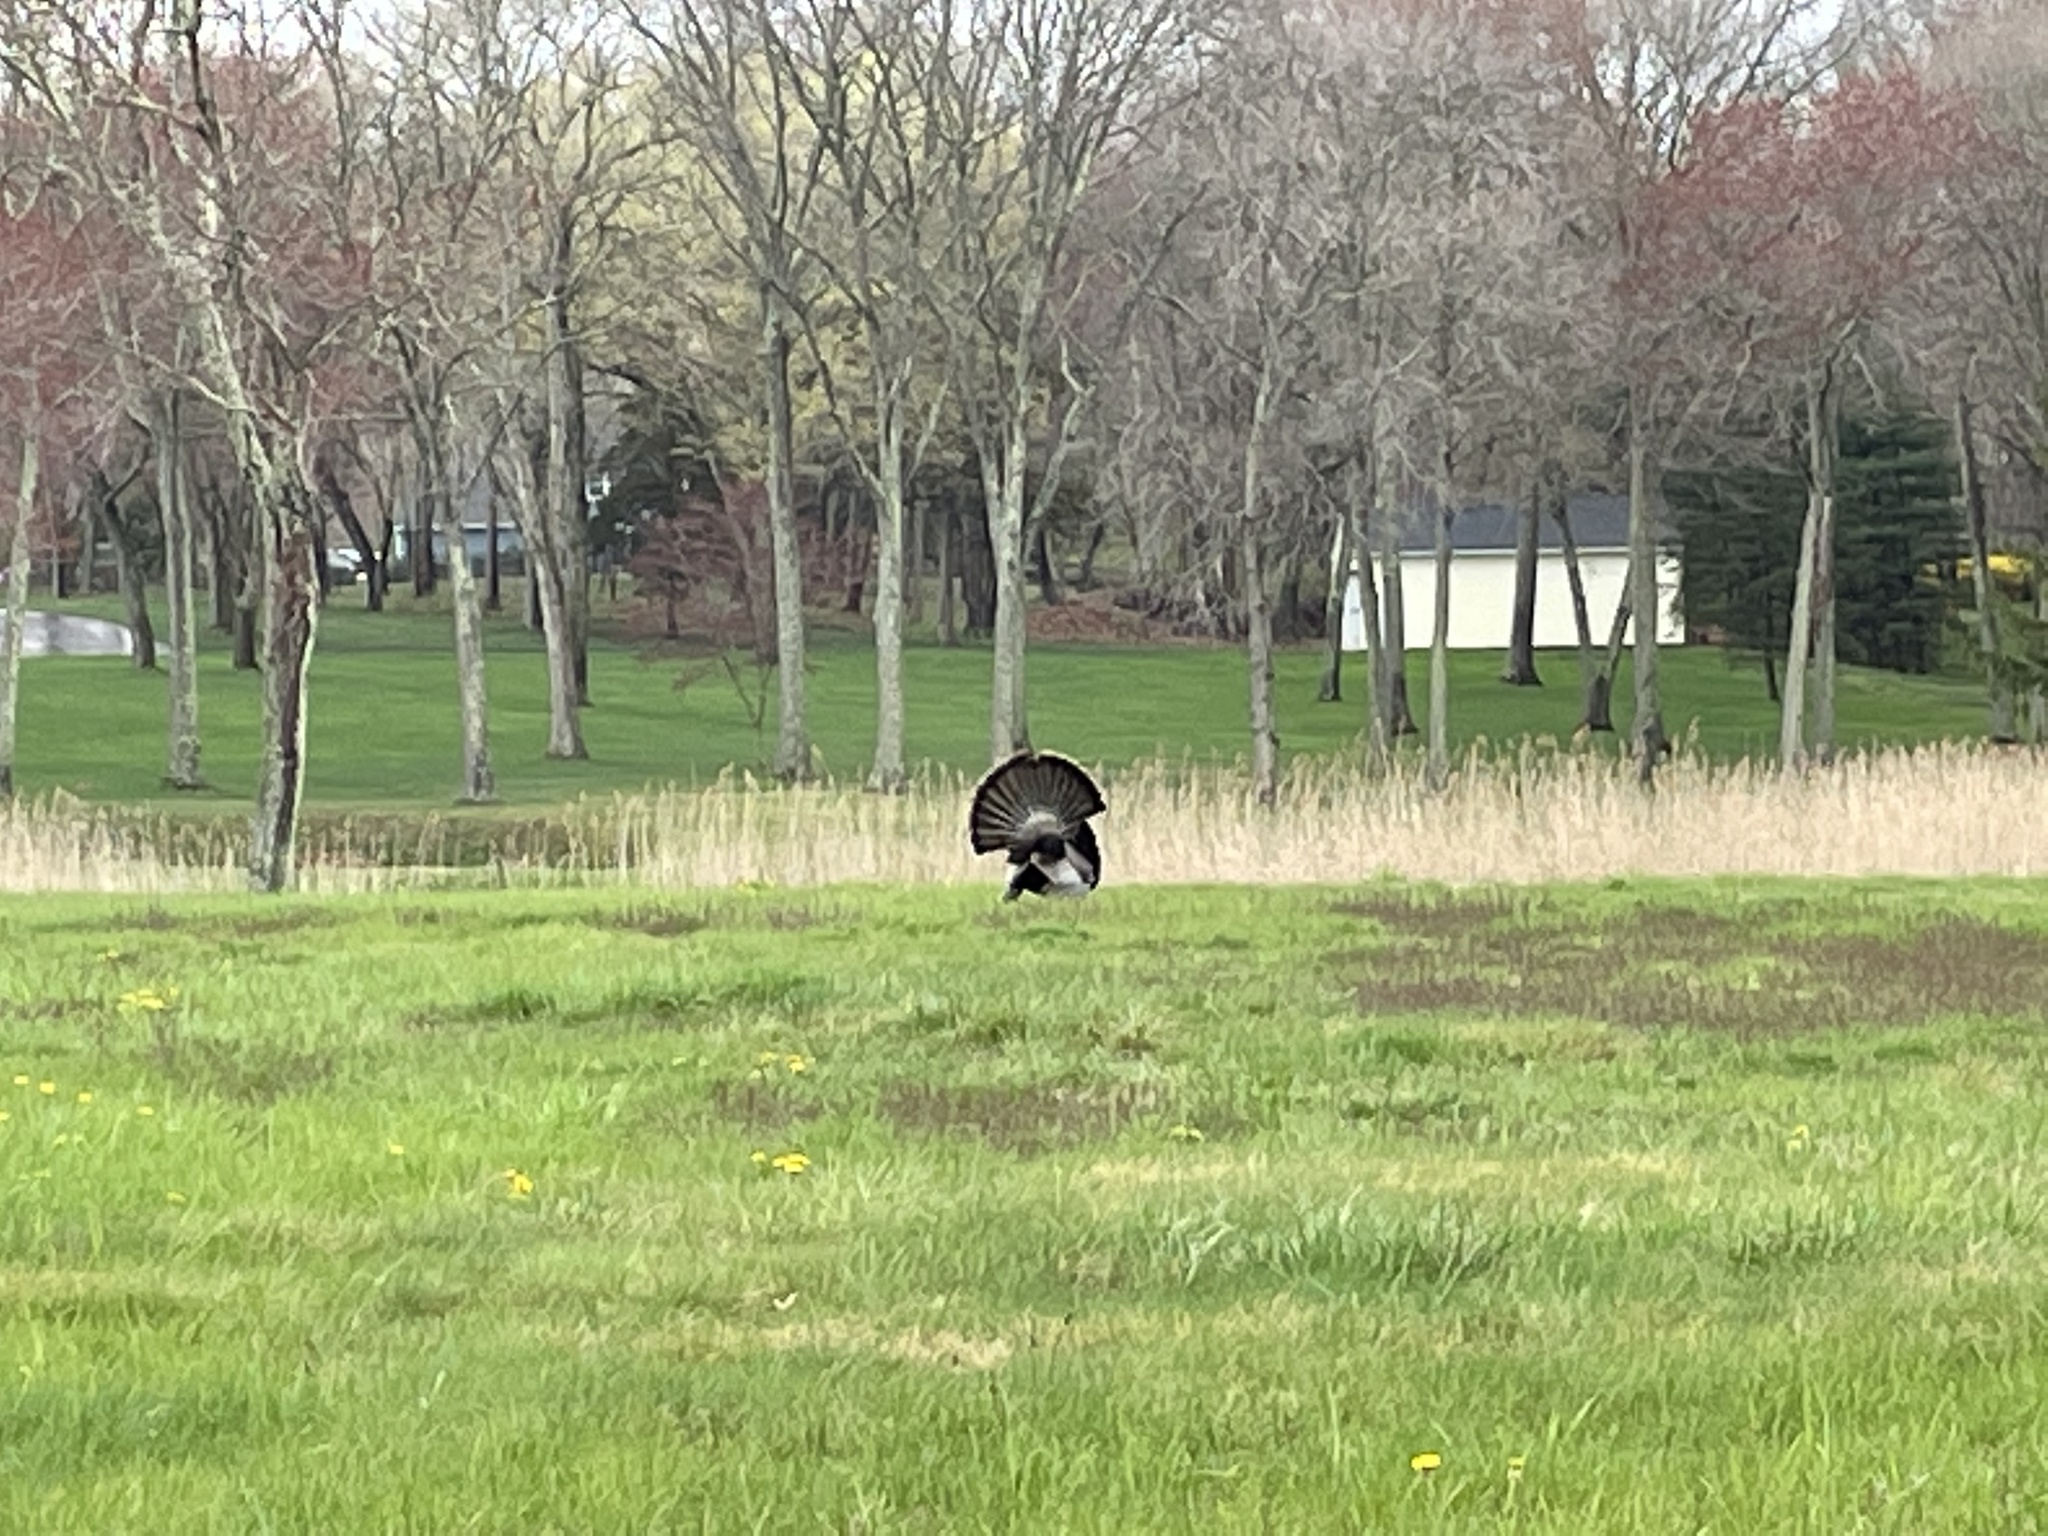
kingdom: Animalia
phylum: Chordata
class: Aves
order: Galliformes
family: Phasianidae
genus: Meleagris
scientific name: Meleagris gallopavo
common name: Wild turkey
